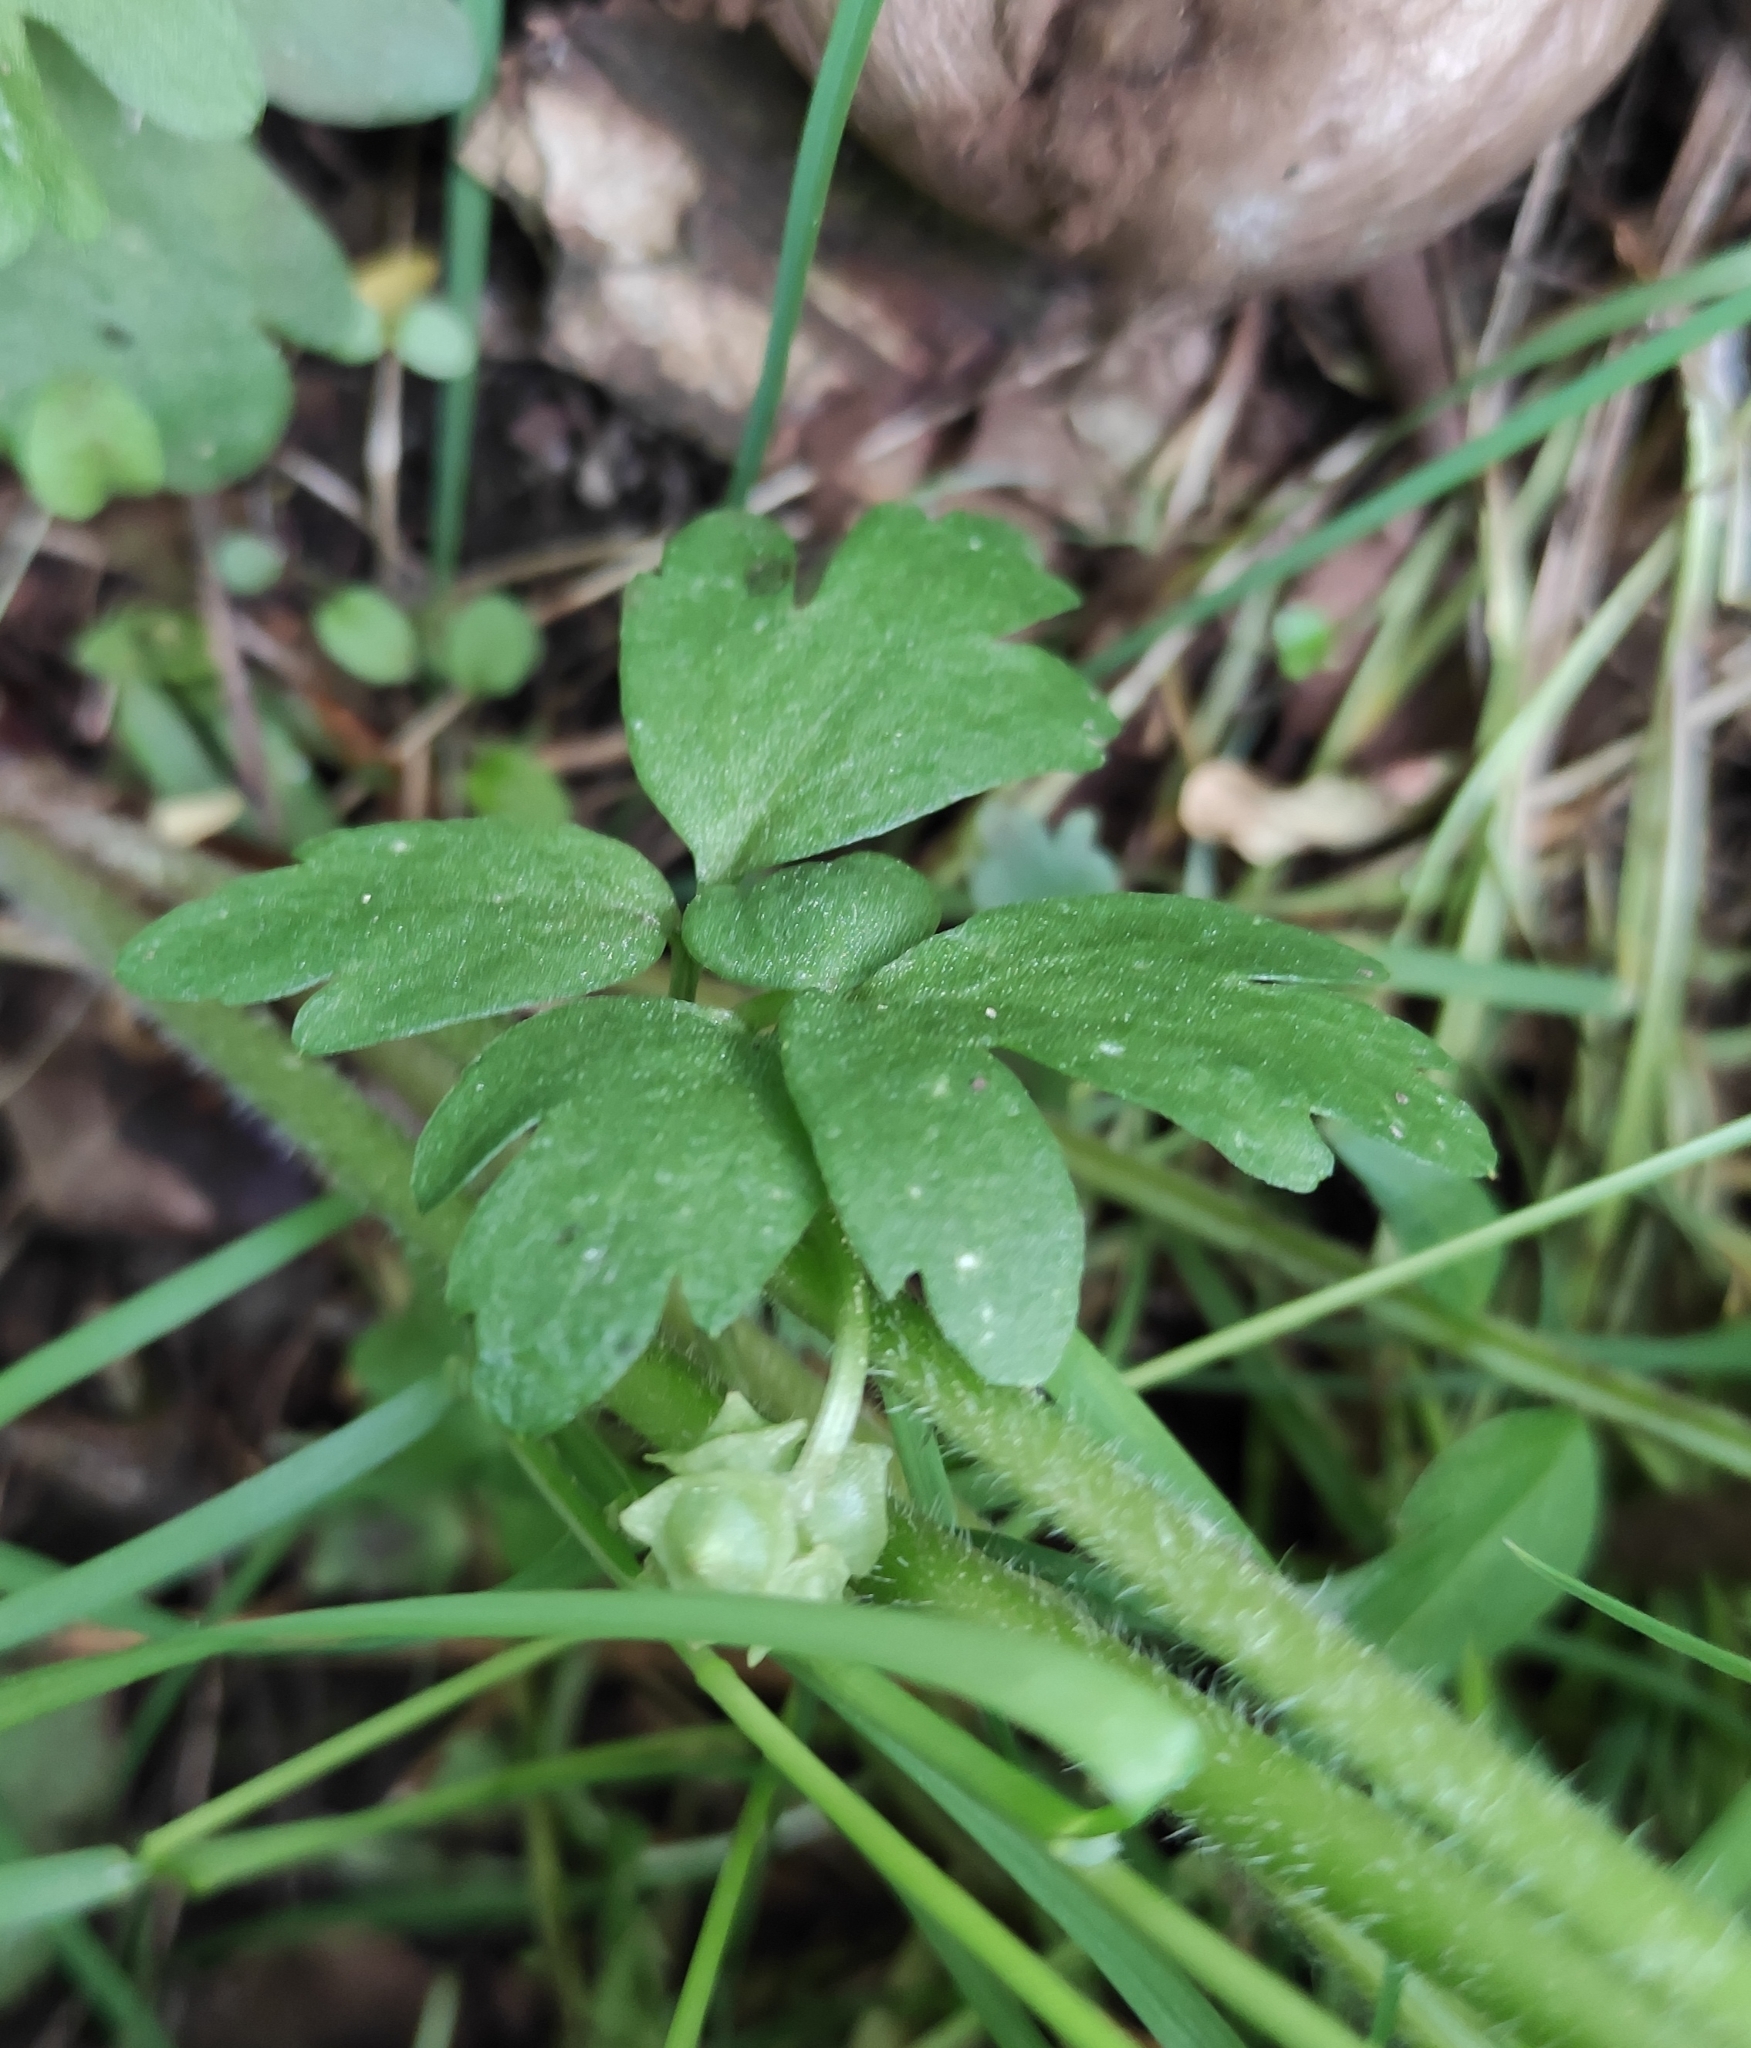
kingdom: Plantae
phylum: Tracheophyta
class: Magnoliopsida
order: Dipsacales
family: Viburnaceae
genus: Adoxa
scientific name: Adoxa moschatellina
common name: Moschatel
